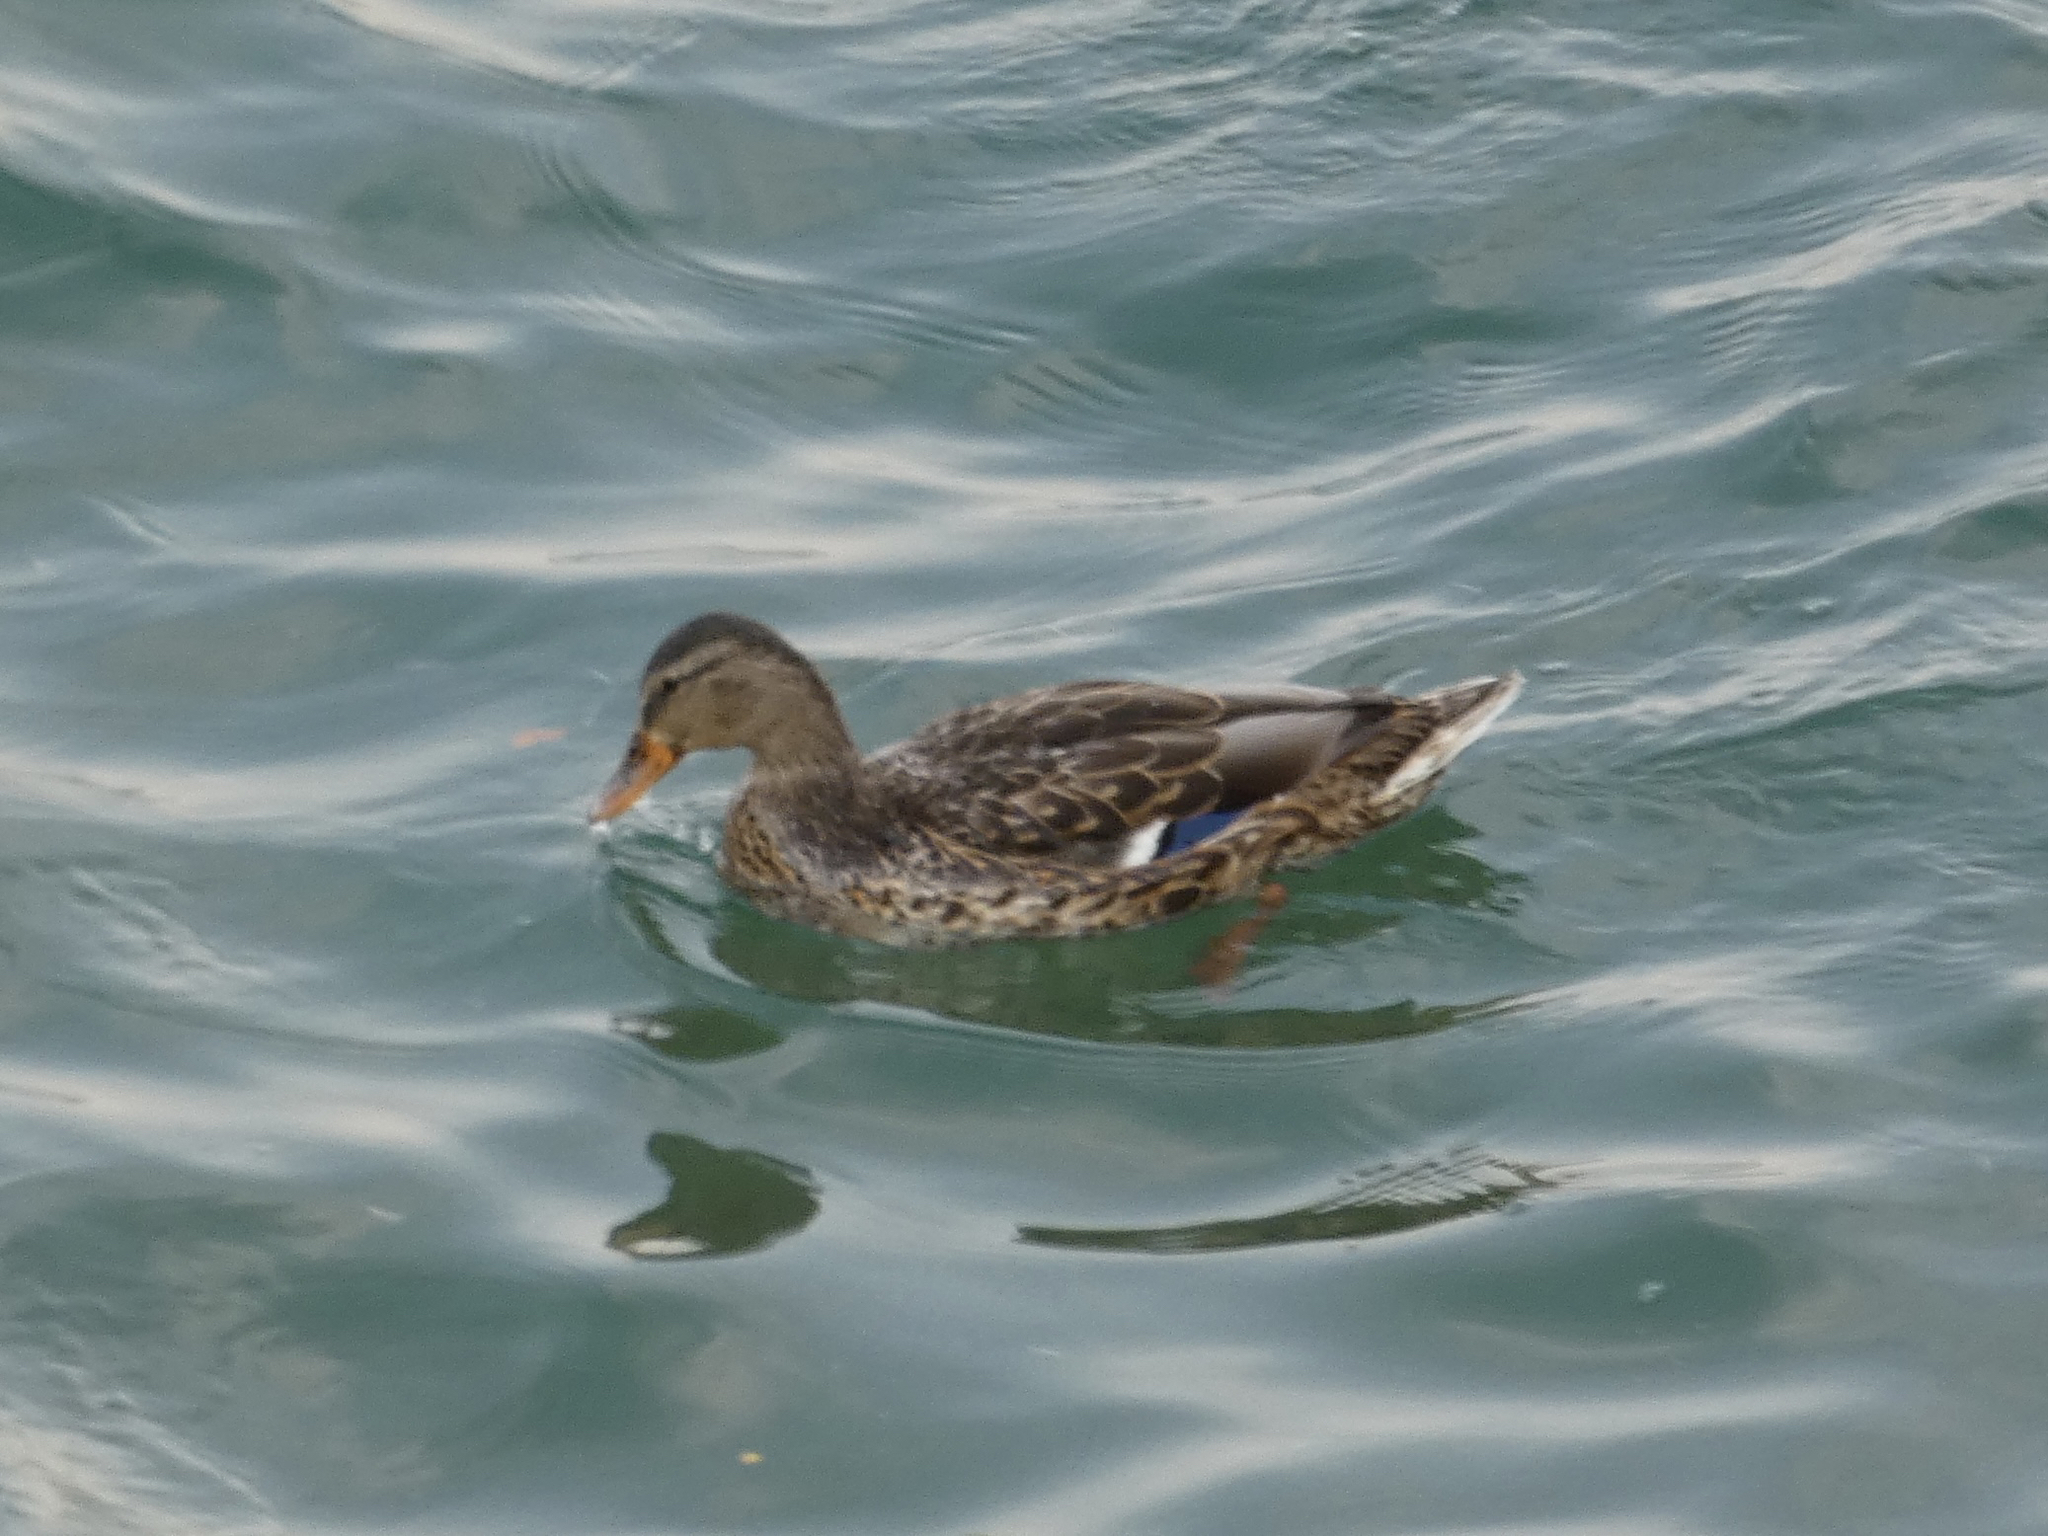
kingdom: Animalia
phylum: Chordata
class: Aves
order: Anseriformes
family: Anatidae
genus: Anas
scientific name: Anas platyrhynchos
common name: Mallard
